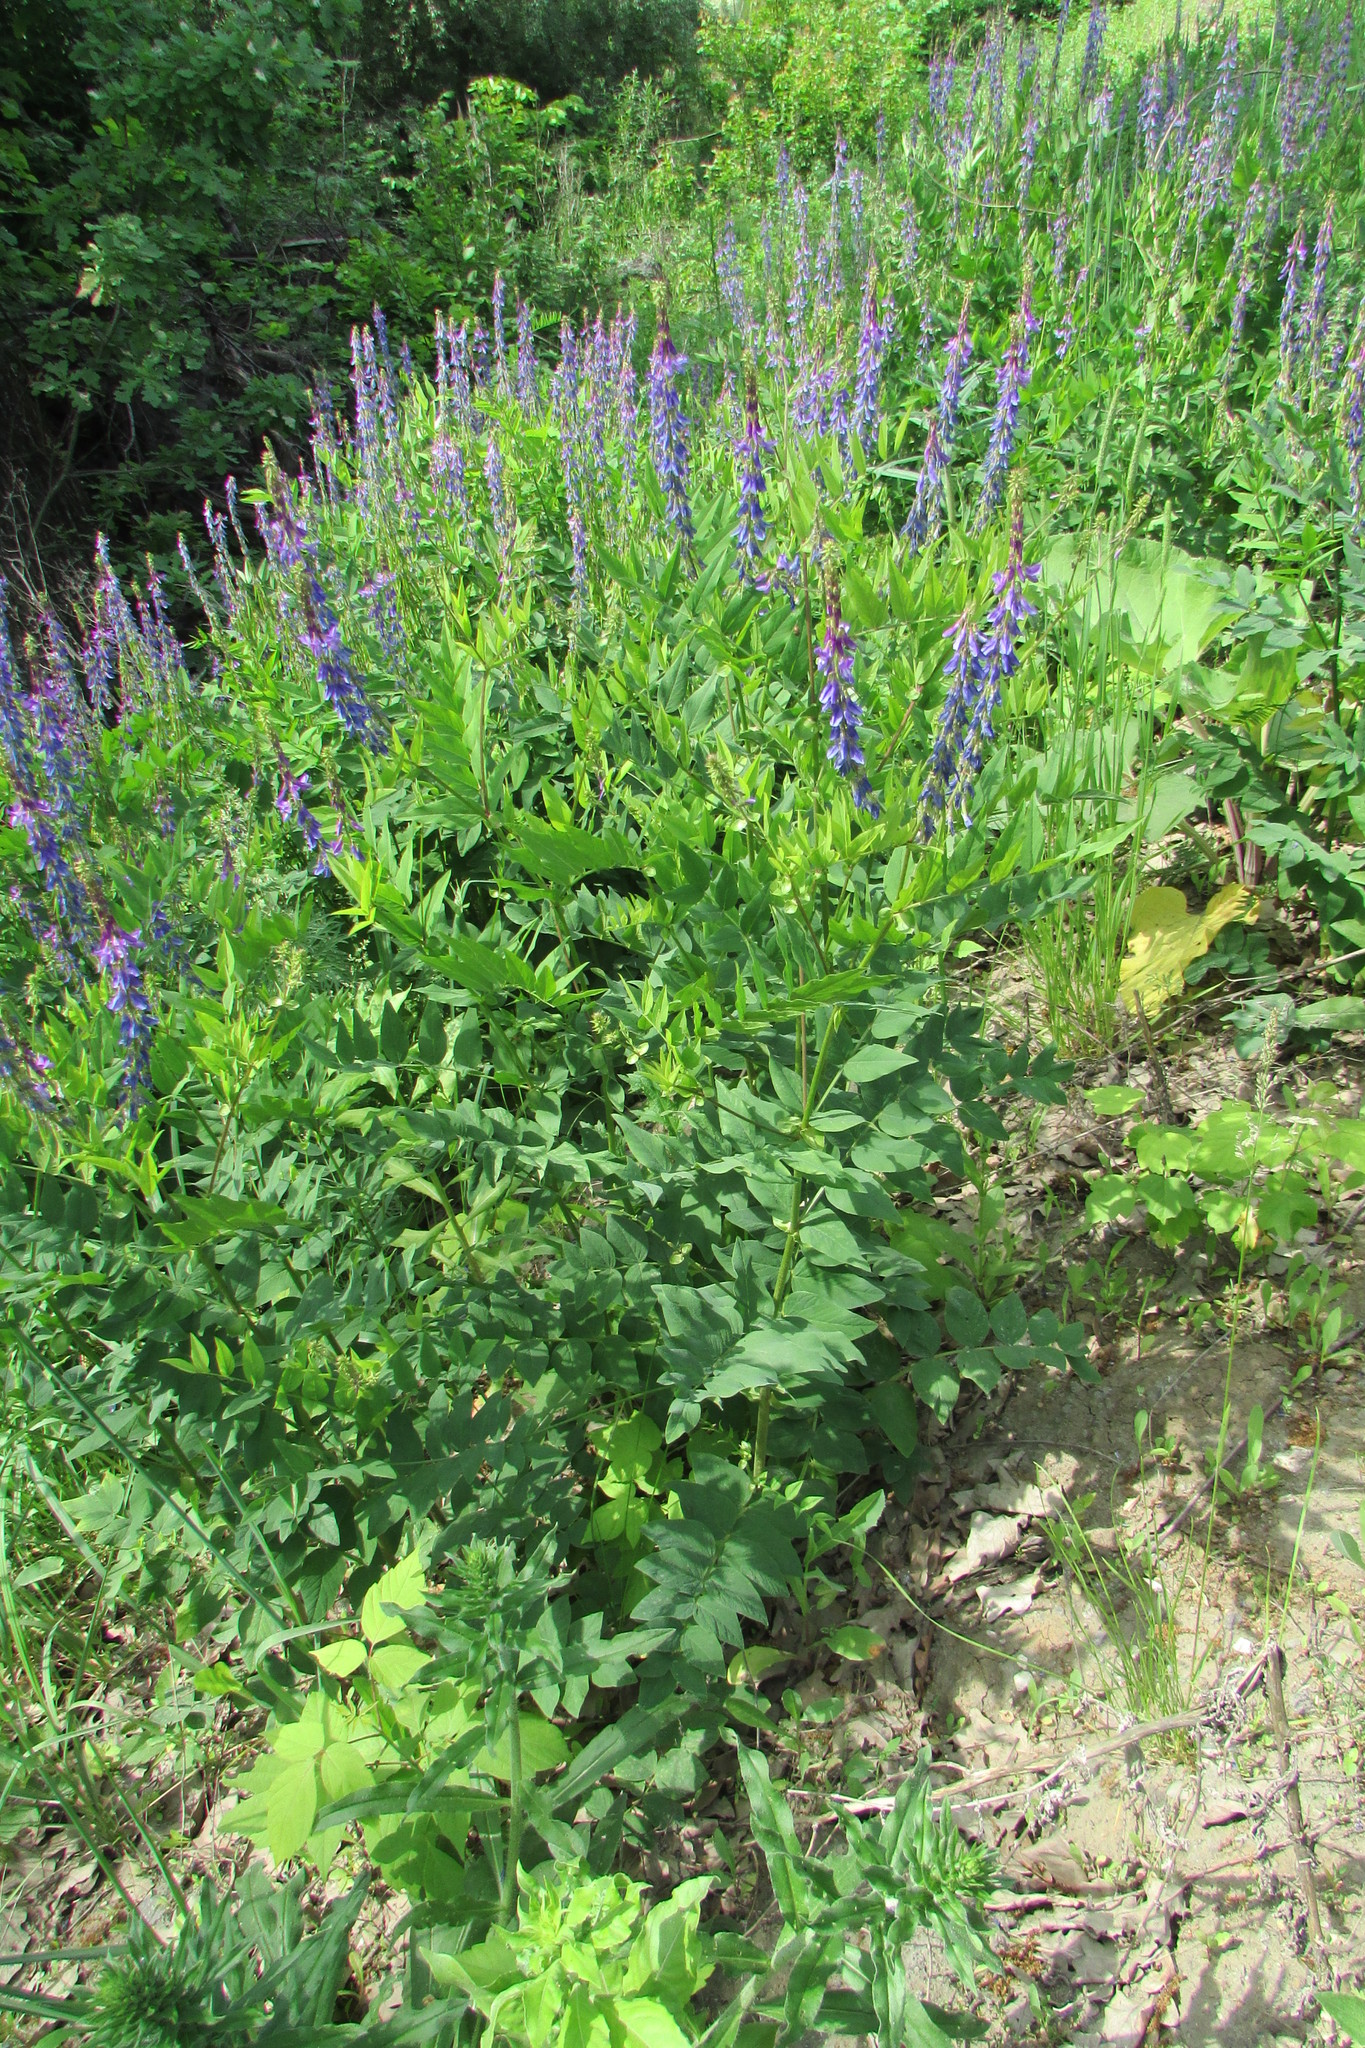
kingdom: Plantae
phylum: Tracheophyta
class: Magnoliopsida
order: Fabales
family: Fabaceae
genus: Galega
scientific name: Galega orientalis
